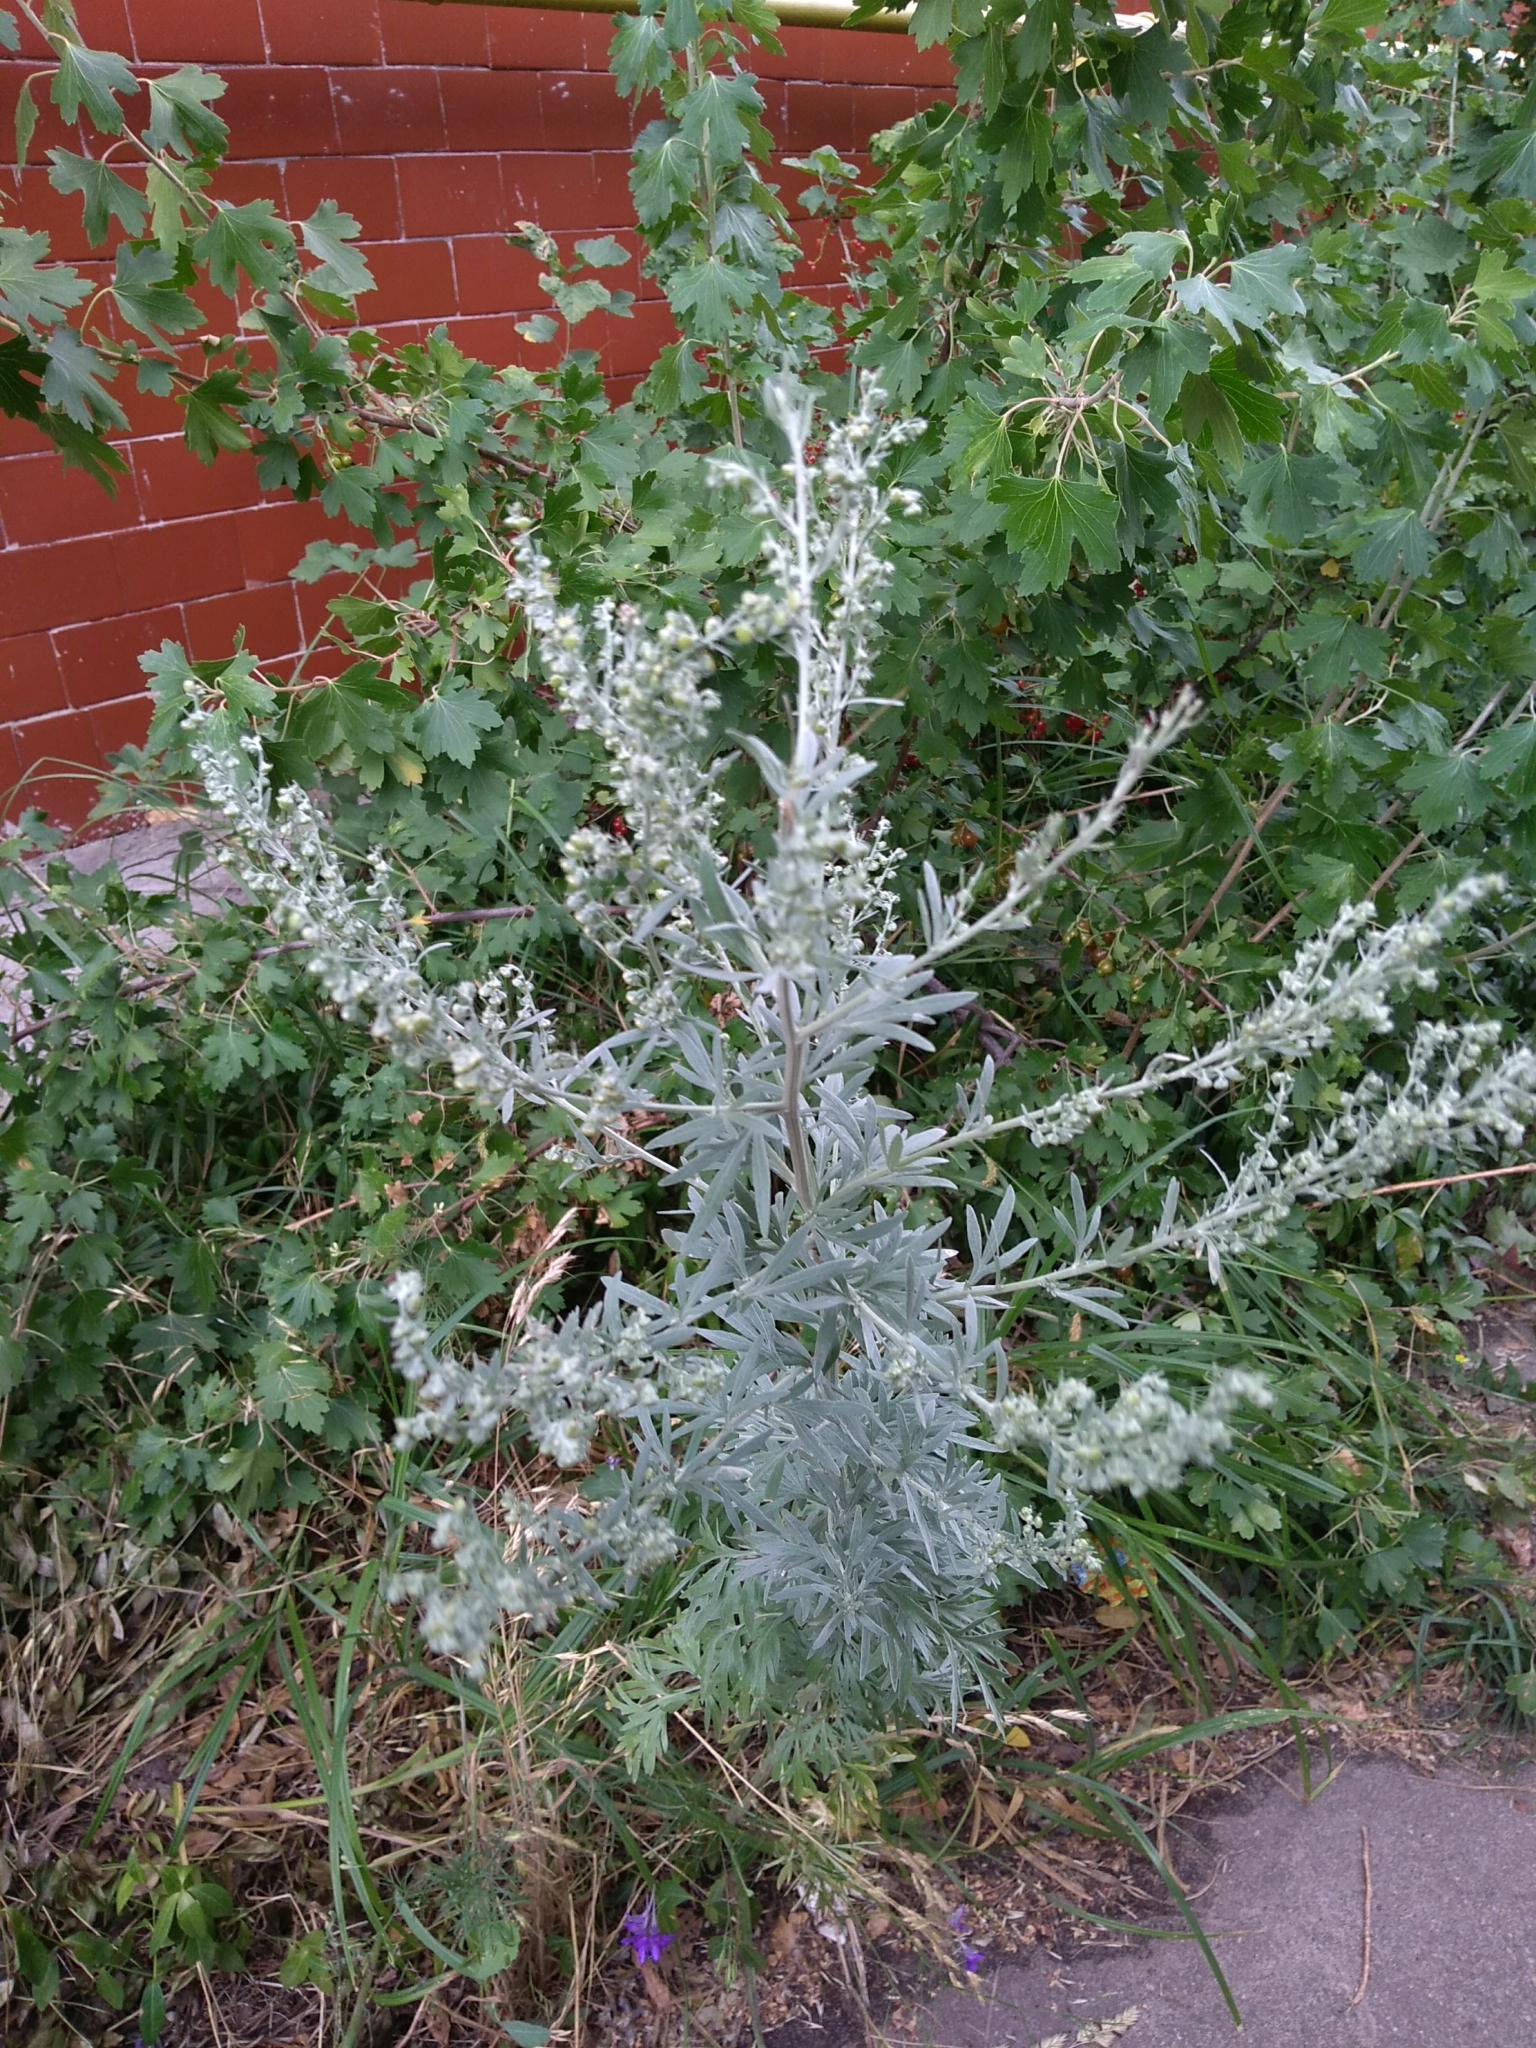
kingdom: Plantae
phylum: Tracheophyta
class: Magnoliopsida
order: Asterales
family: Asteraceae
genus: Artemisia
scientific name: Artemisia absinthium
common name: Wormwood
